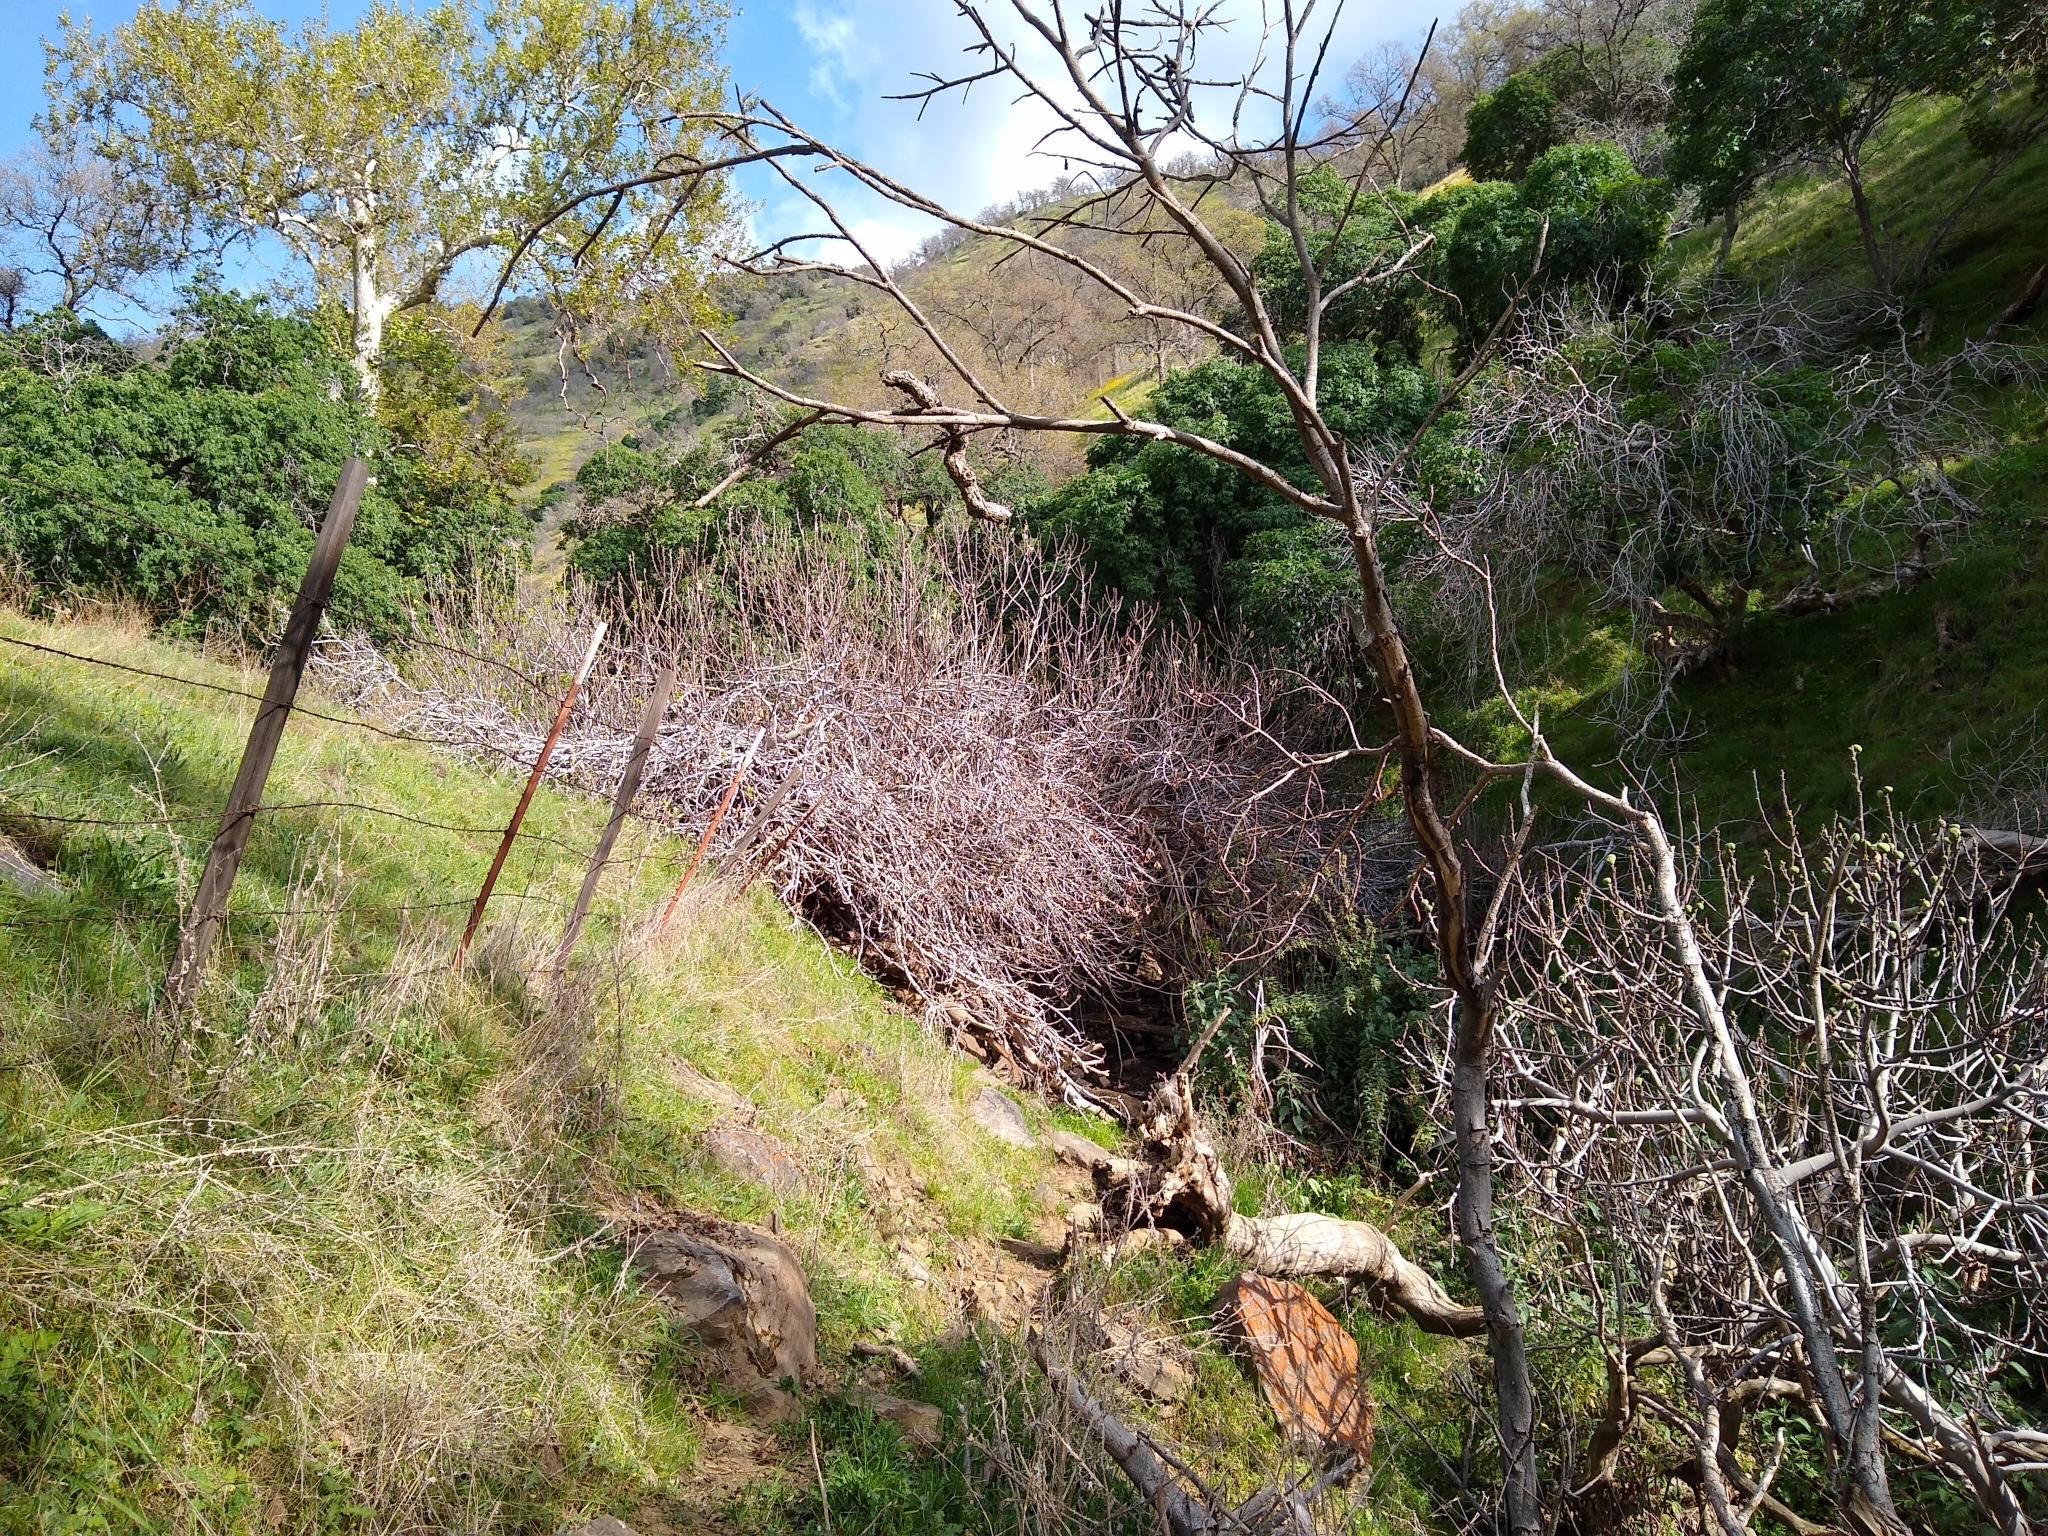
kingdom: Plantae
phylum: Tracheophyta
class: Magnoliopsida
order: Rosales
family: Moraceae
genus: Ficus
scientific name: Ficus carica
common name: Fig
